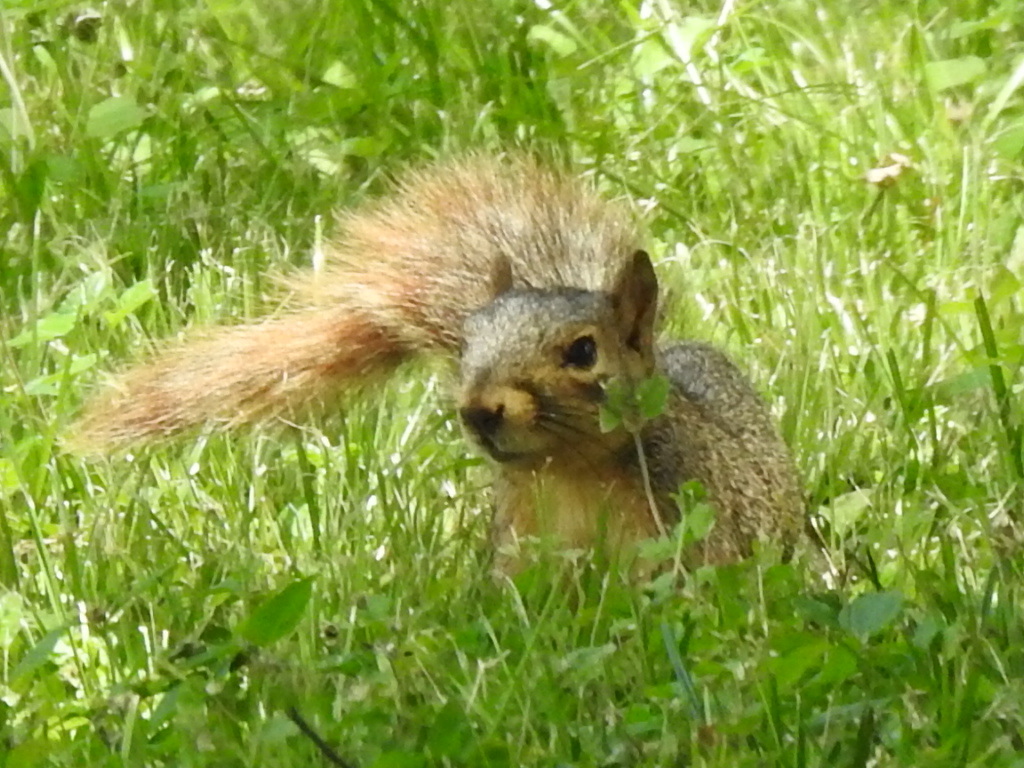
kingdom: Animalia
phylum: Chordata
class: Mammalia
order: Rodentia
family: Sciuridae
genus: Sciurus
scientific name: Sciurus niger
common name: Fox squirrel
